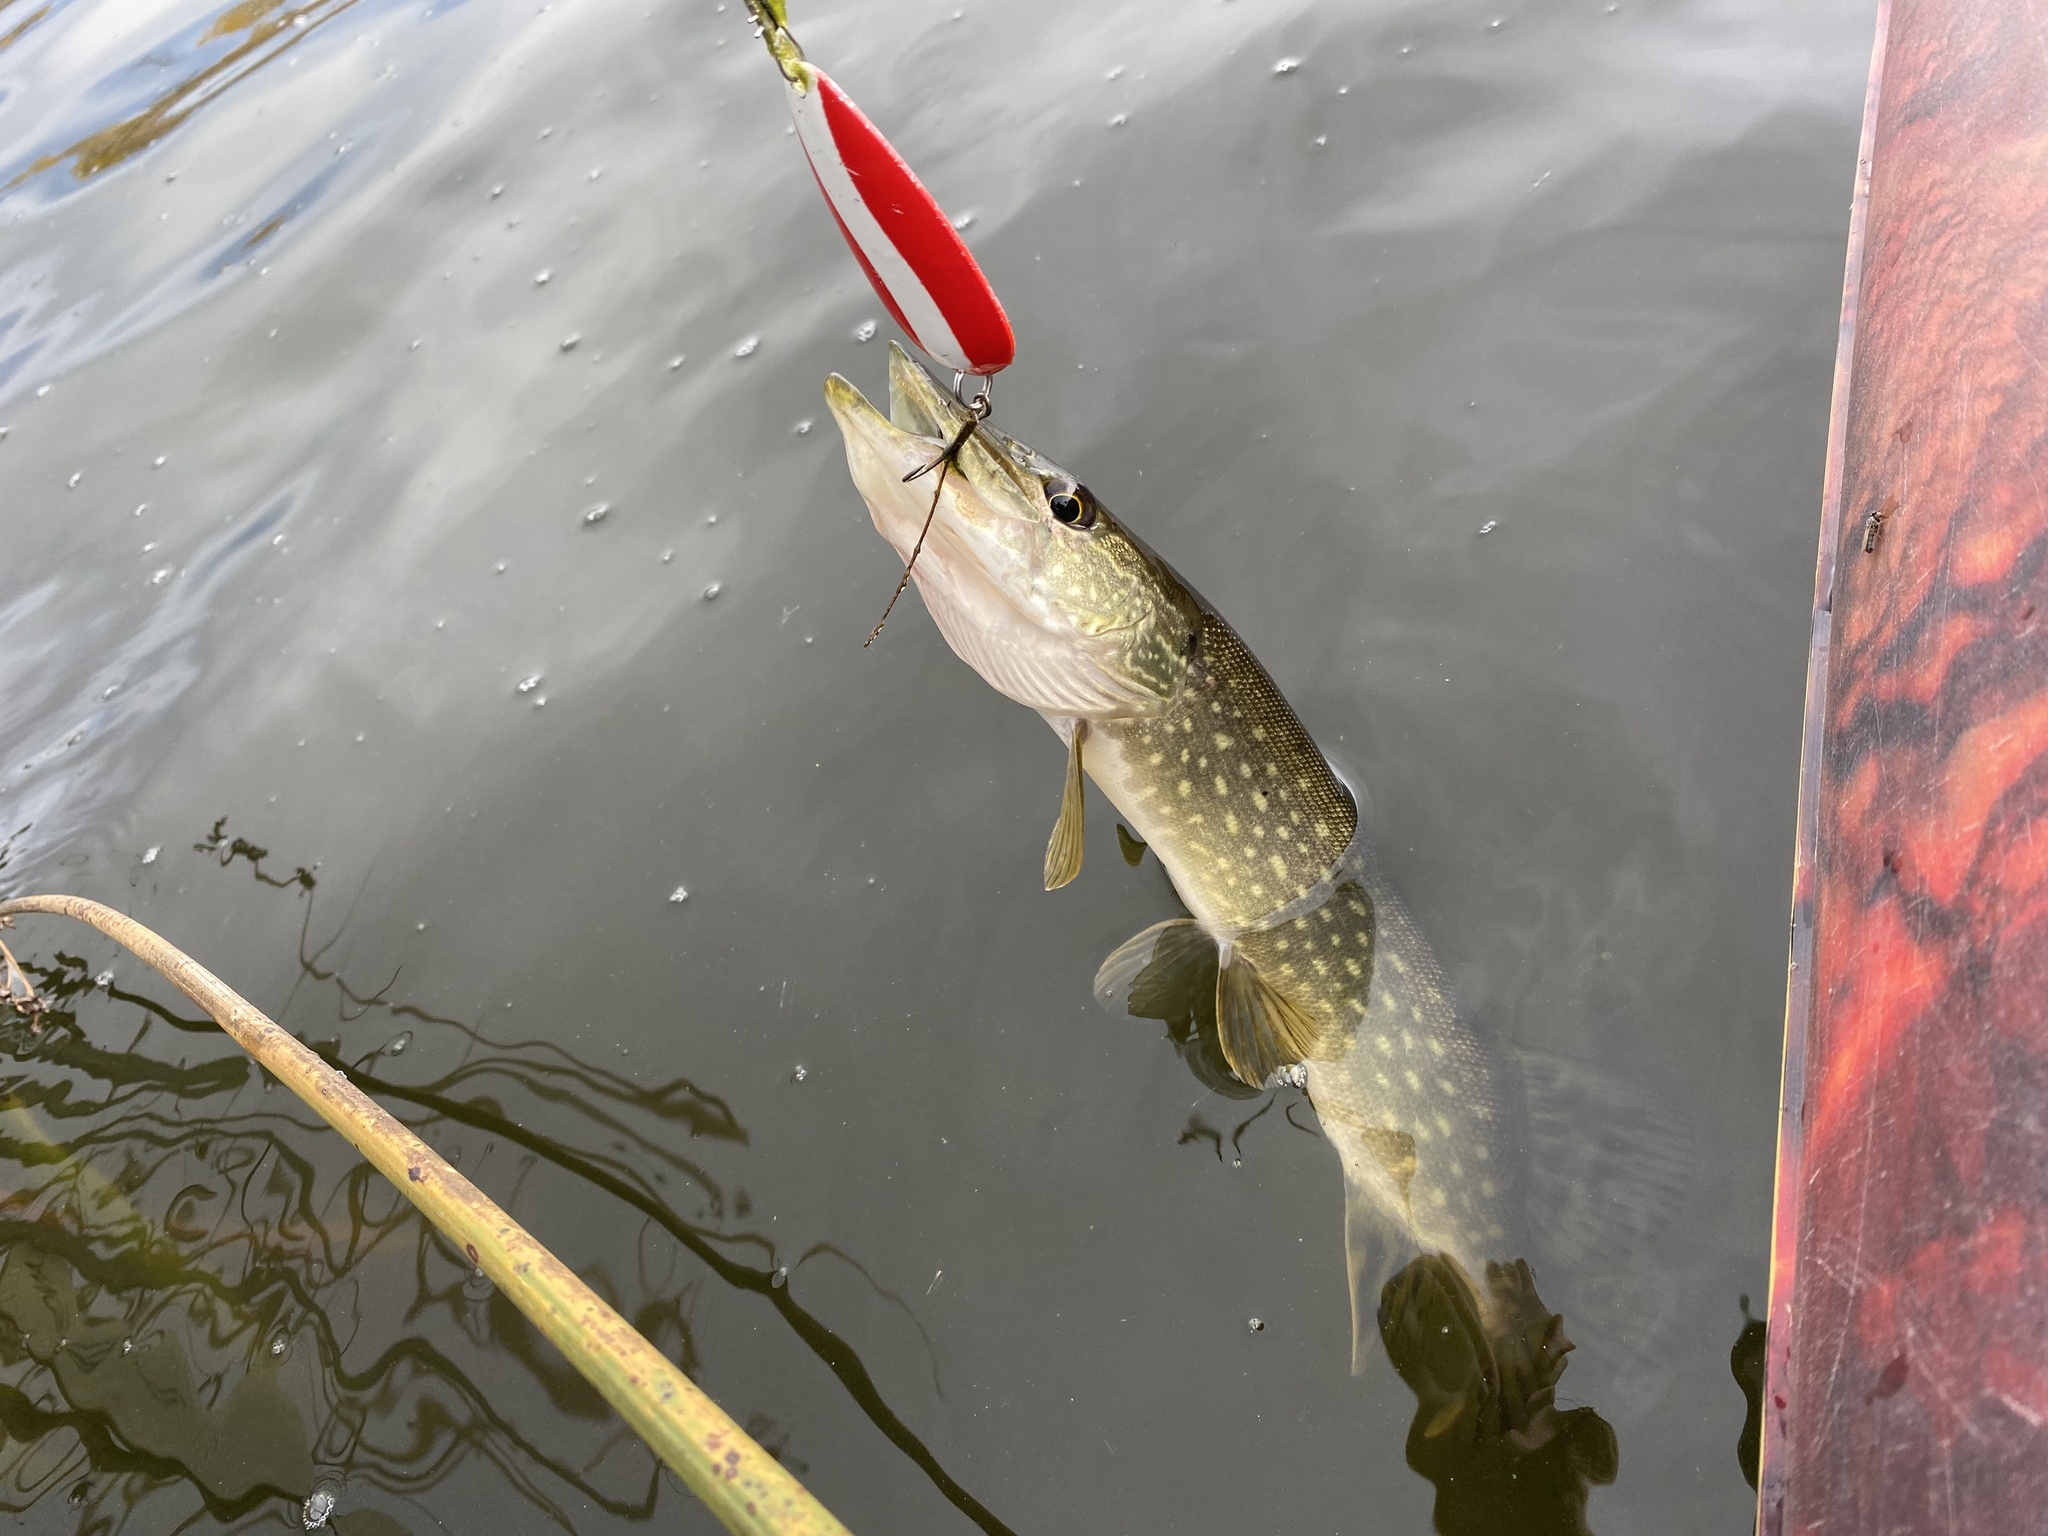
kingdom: Animalia
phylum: Chordata
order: Esociformes
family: Esocidae
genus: Esox
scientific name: Esox lucius
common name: Northern pike
